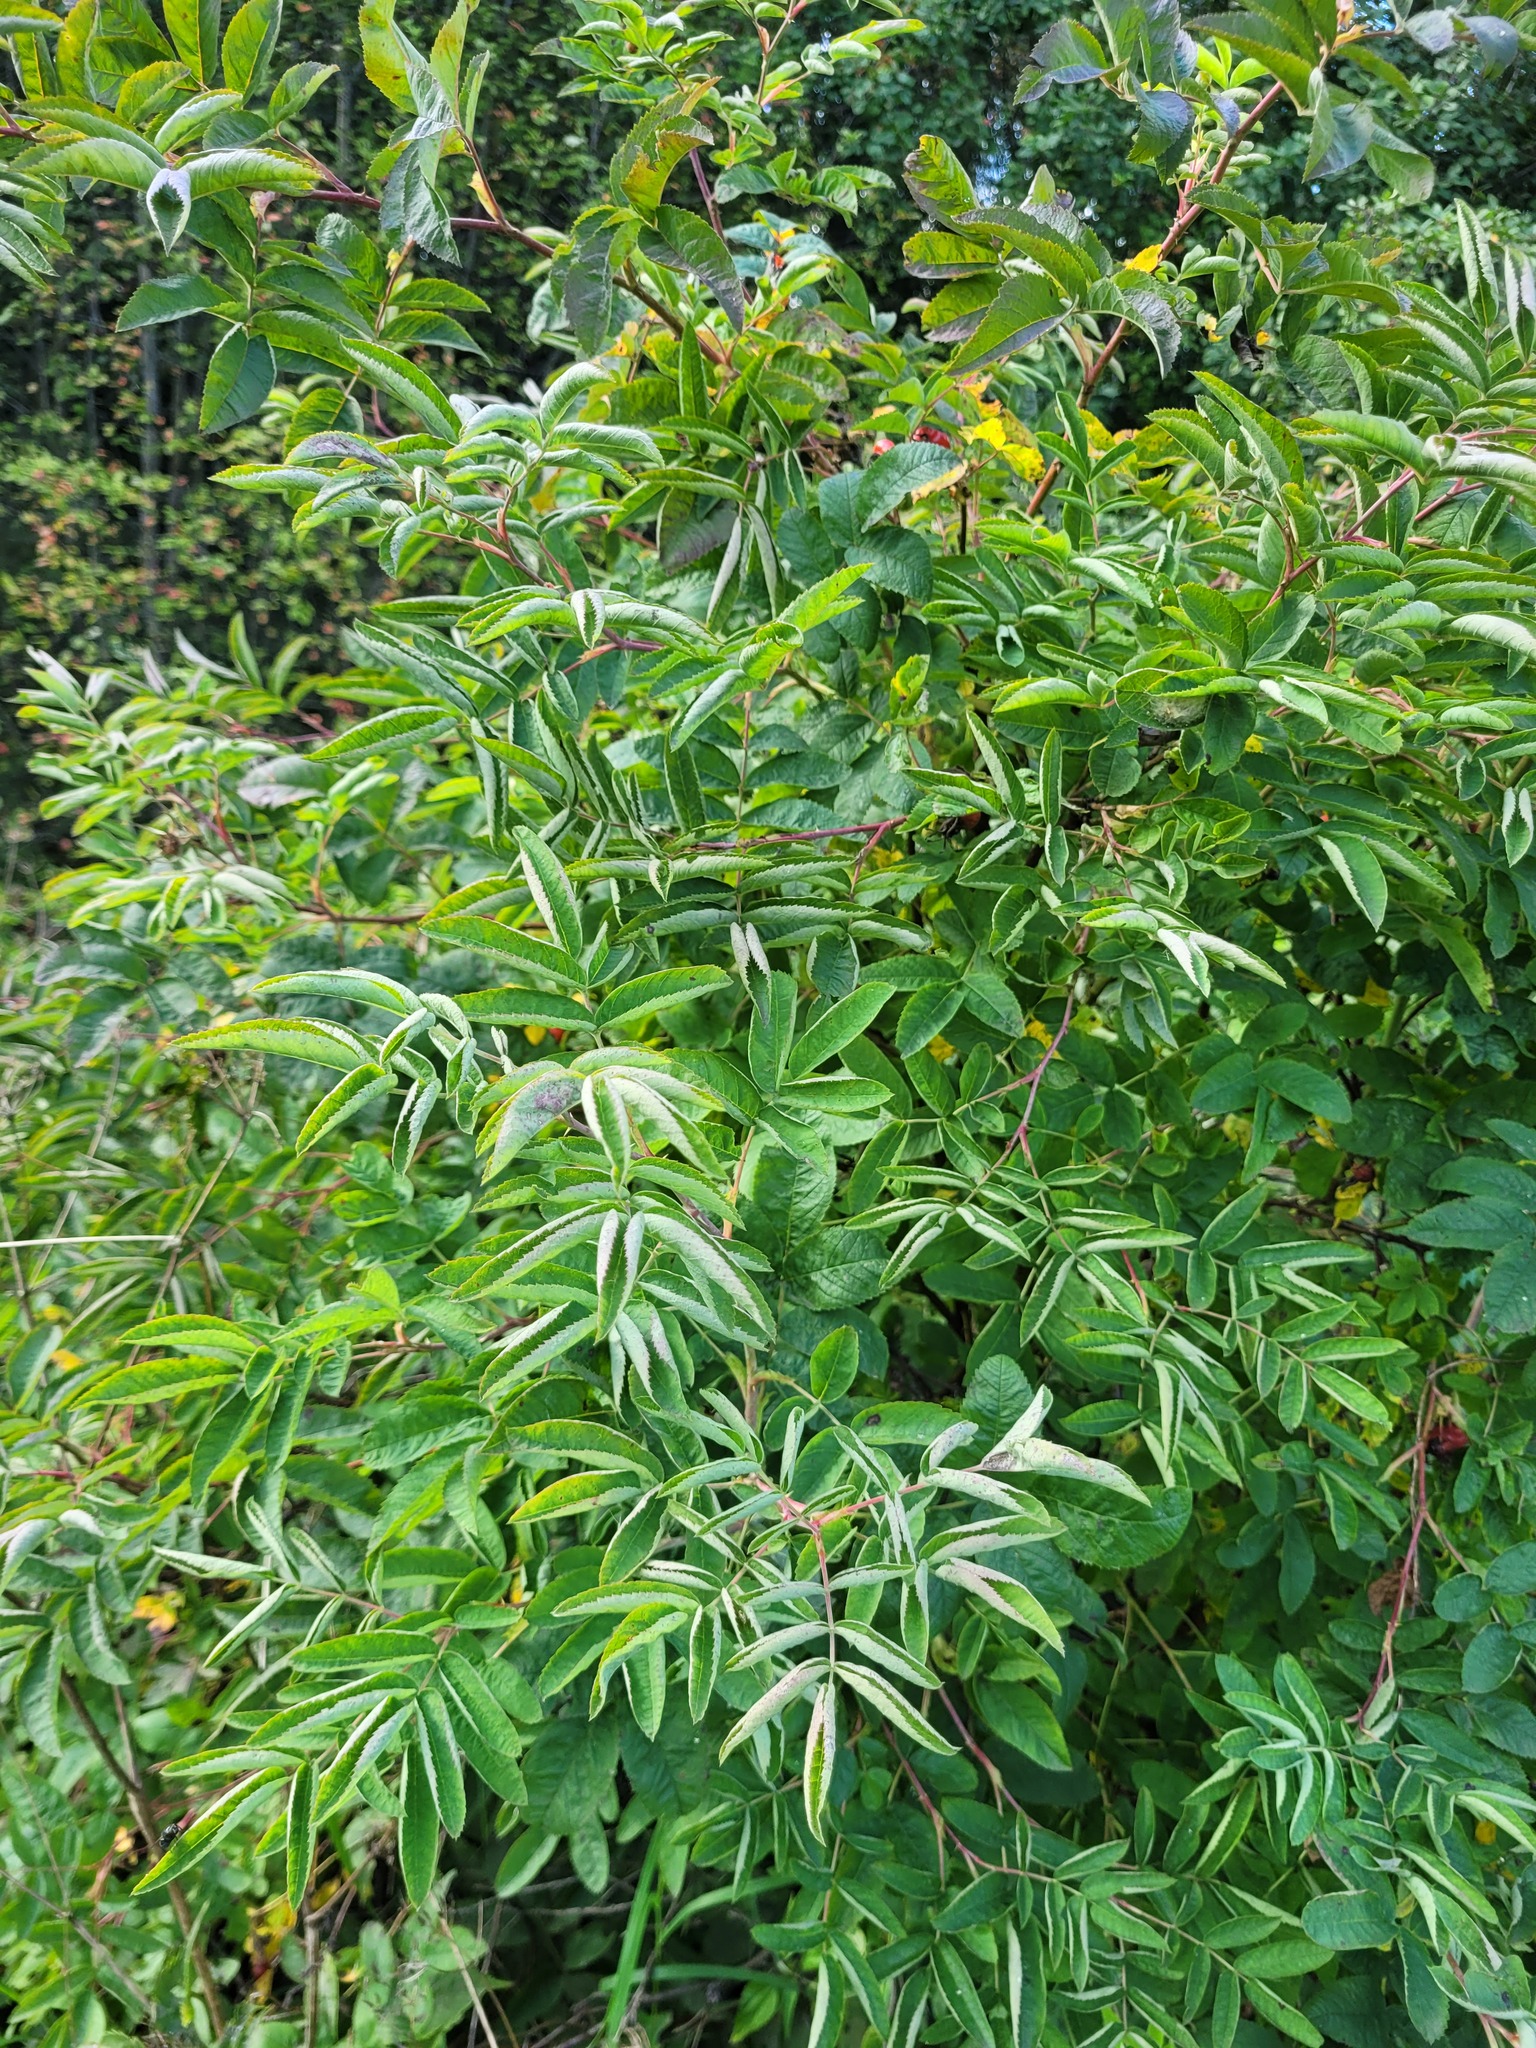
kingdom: Plantae
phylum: Tracheophyta
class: Magnoliopsida
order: Rosales
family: Rosaceae
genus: Rosa
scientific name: Rosa majalis
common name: Cinnamon rose
